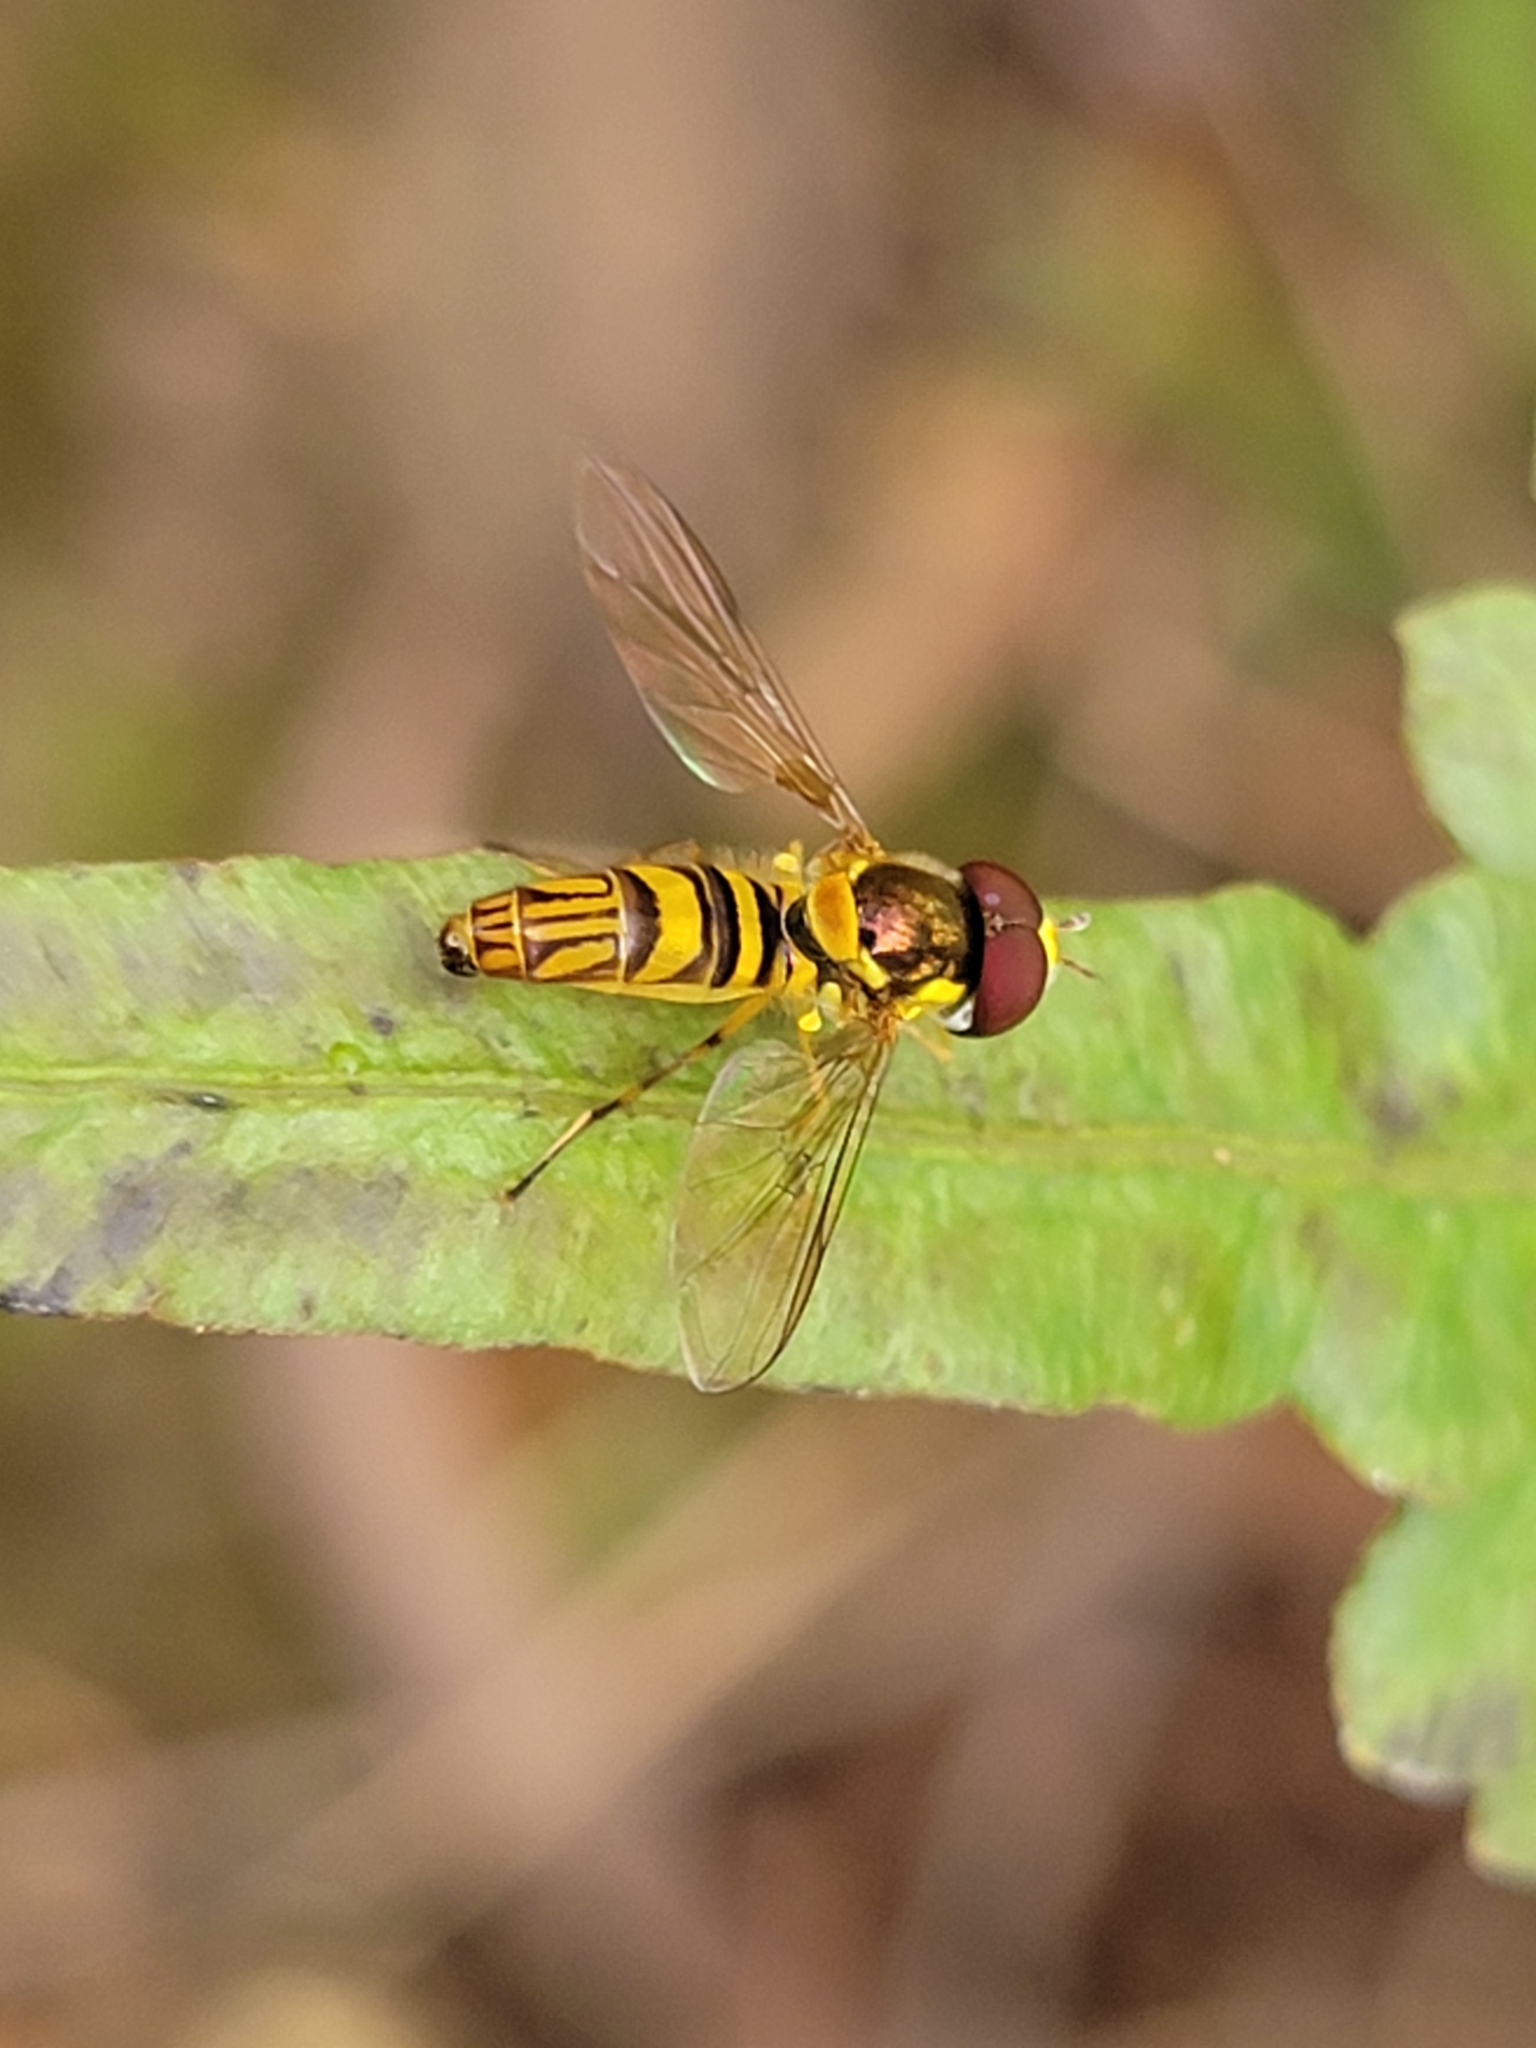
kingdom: Animalia
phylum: Arthropoda
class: Insecta
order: Diptera
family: Syrphidae
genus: Allograpta
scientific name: Allograpta obliqua
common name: Common oblique syrphid
